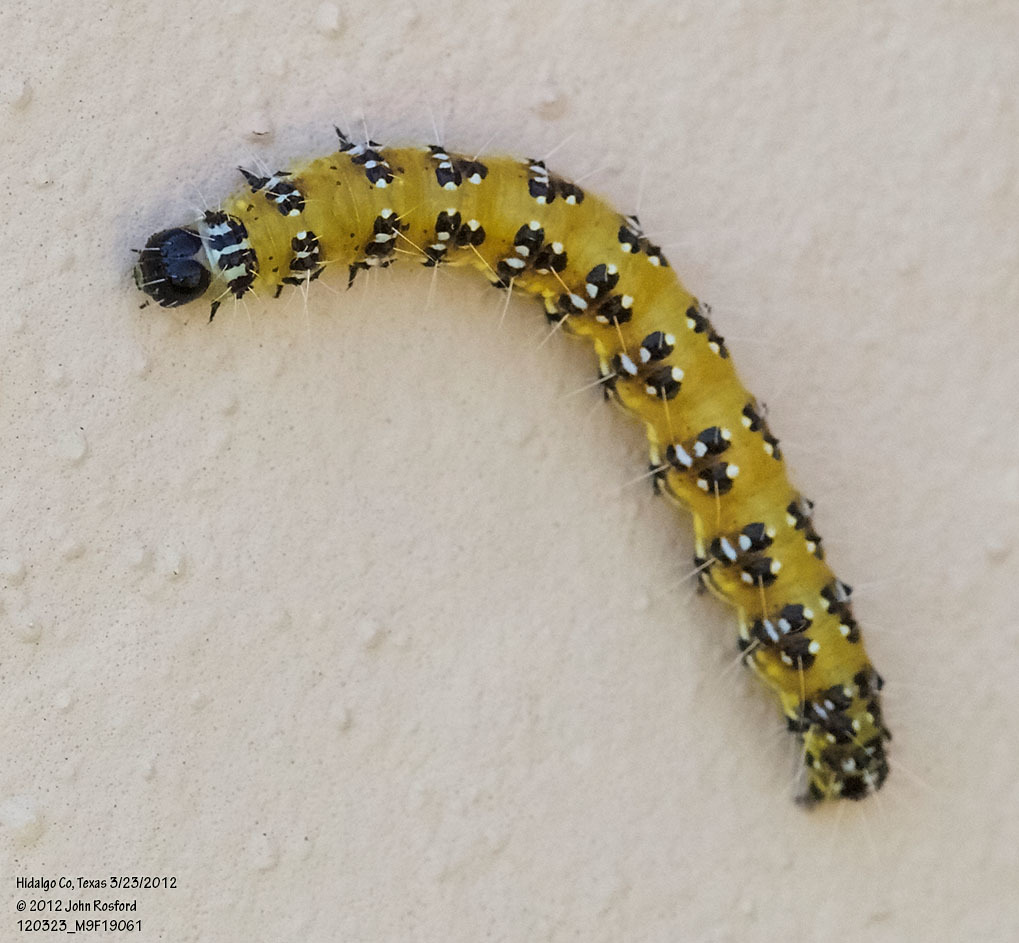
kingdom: Animalia
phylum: Arthropoda
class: Insecta
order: Lepidoptera
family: Crambidae
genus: Uresiphita
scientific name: Uresiphita reversalis
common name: Genista broom moth
